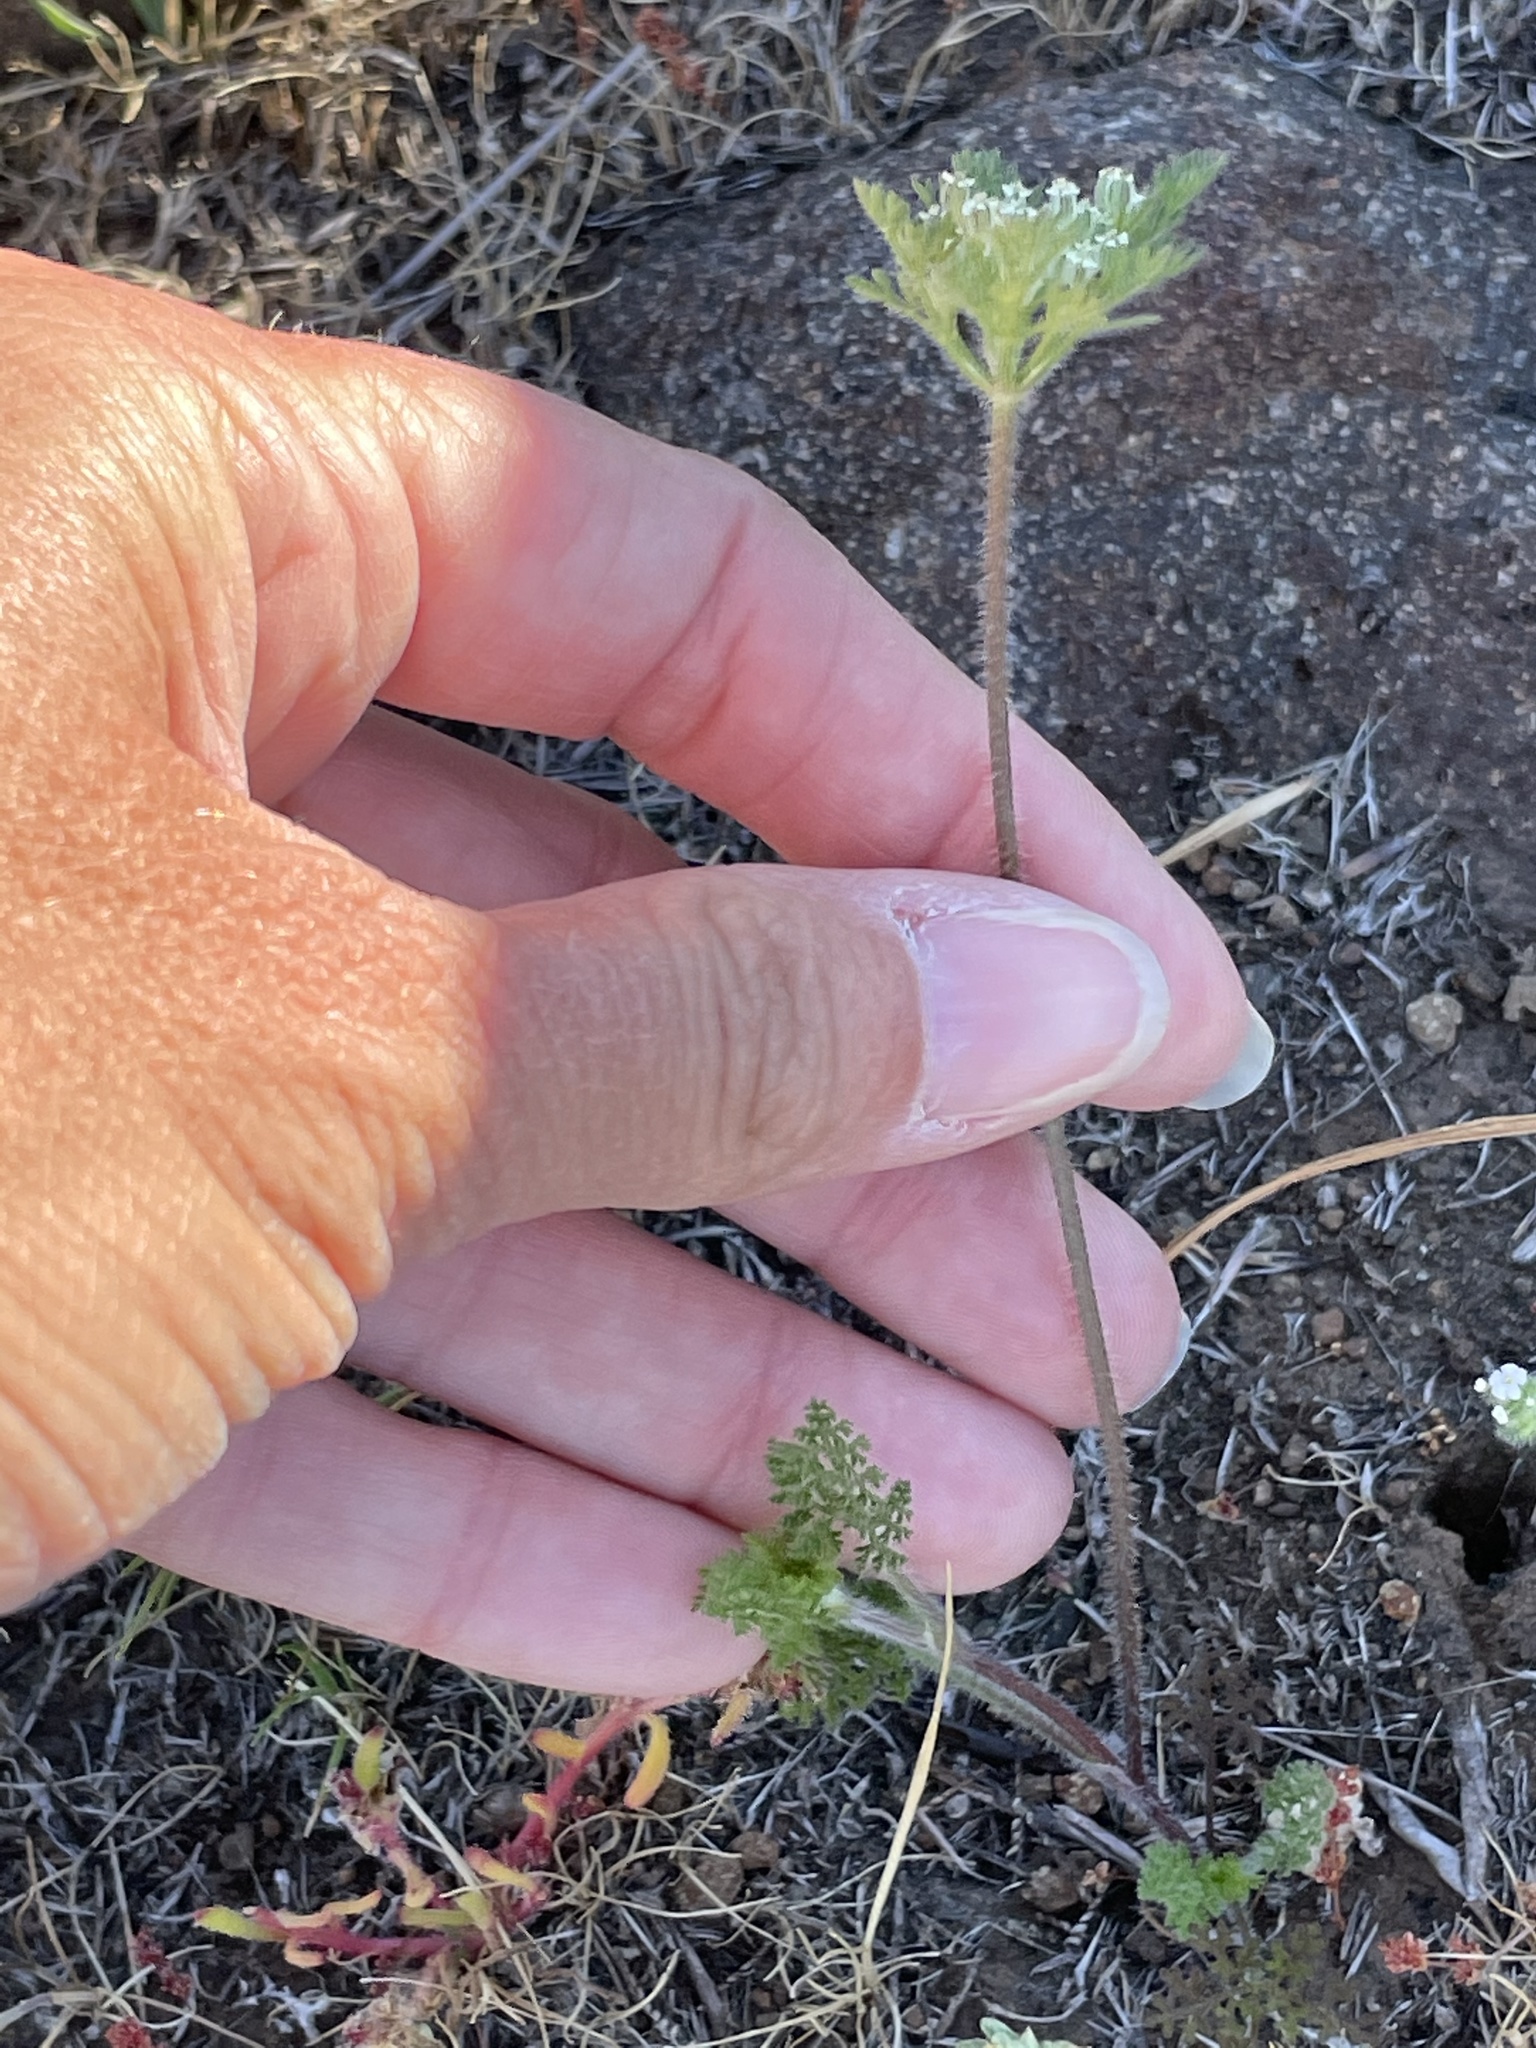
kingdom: Plantae
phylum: Tracheophyta
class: Magnoliopsida
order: Apiales
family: Apiaceae
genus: Daucus
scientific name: Daucus pusillus
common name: Southwest wild carrot
